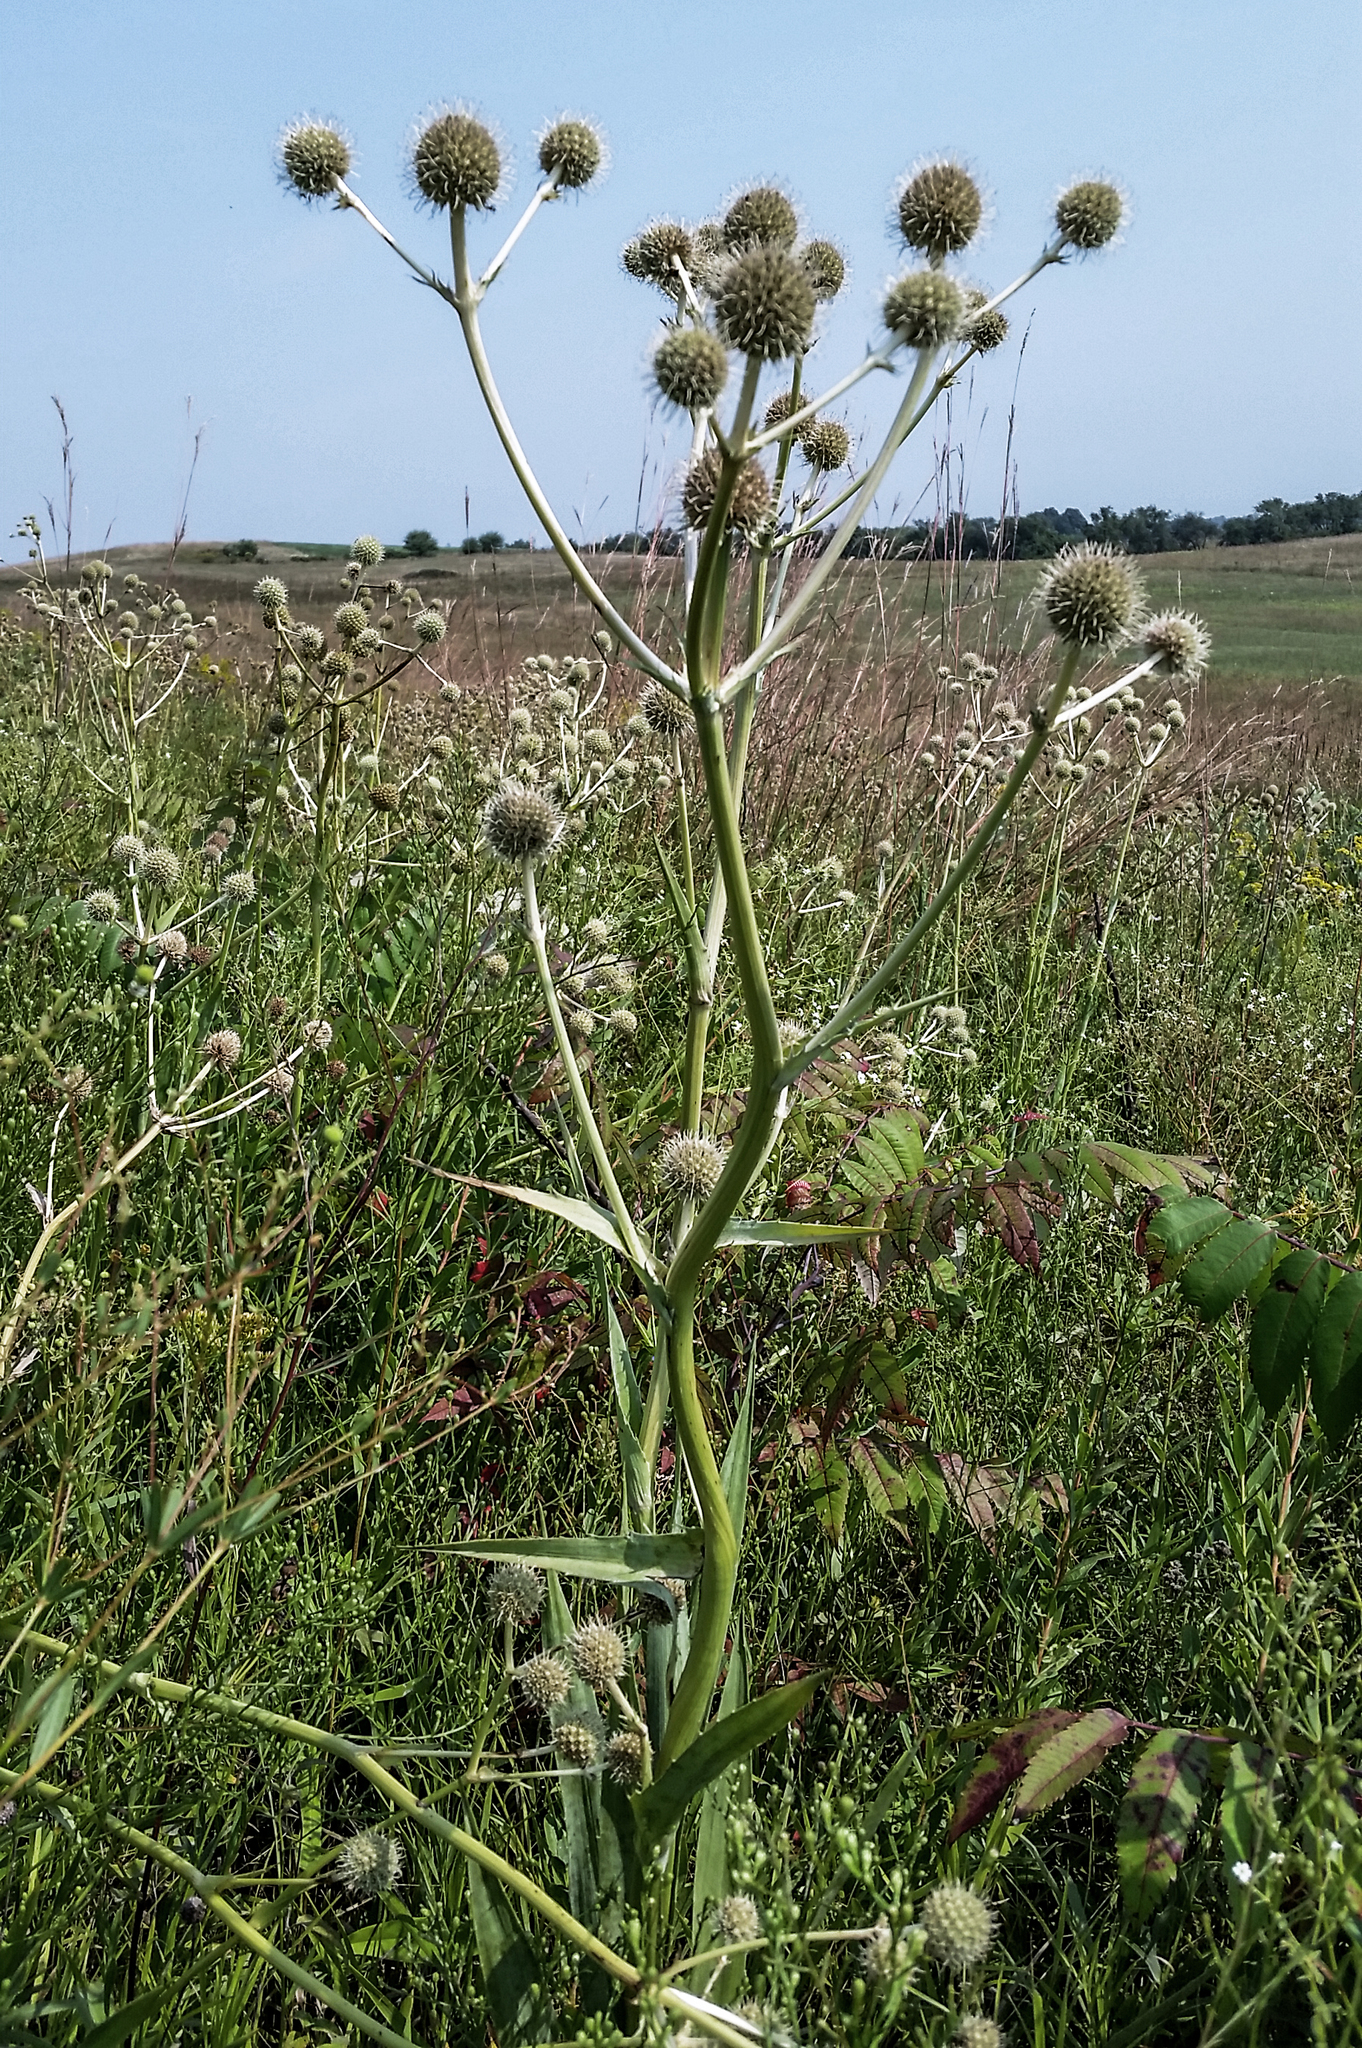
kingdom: Plantae
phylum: Tracheophyta
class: Magnoliopsida
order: Apiales
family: Apiaceae
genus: Eryngium
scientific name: Eryngium yuccifolium
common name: Button eryngo
